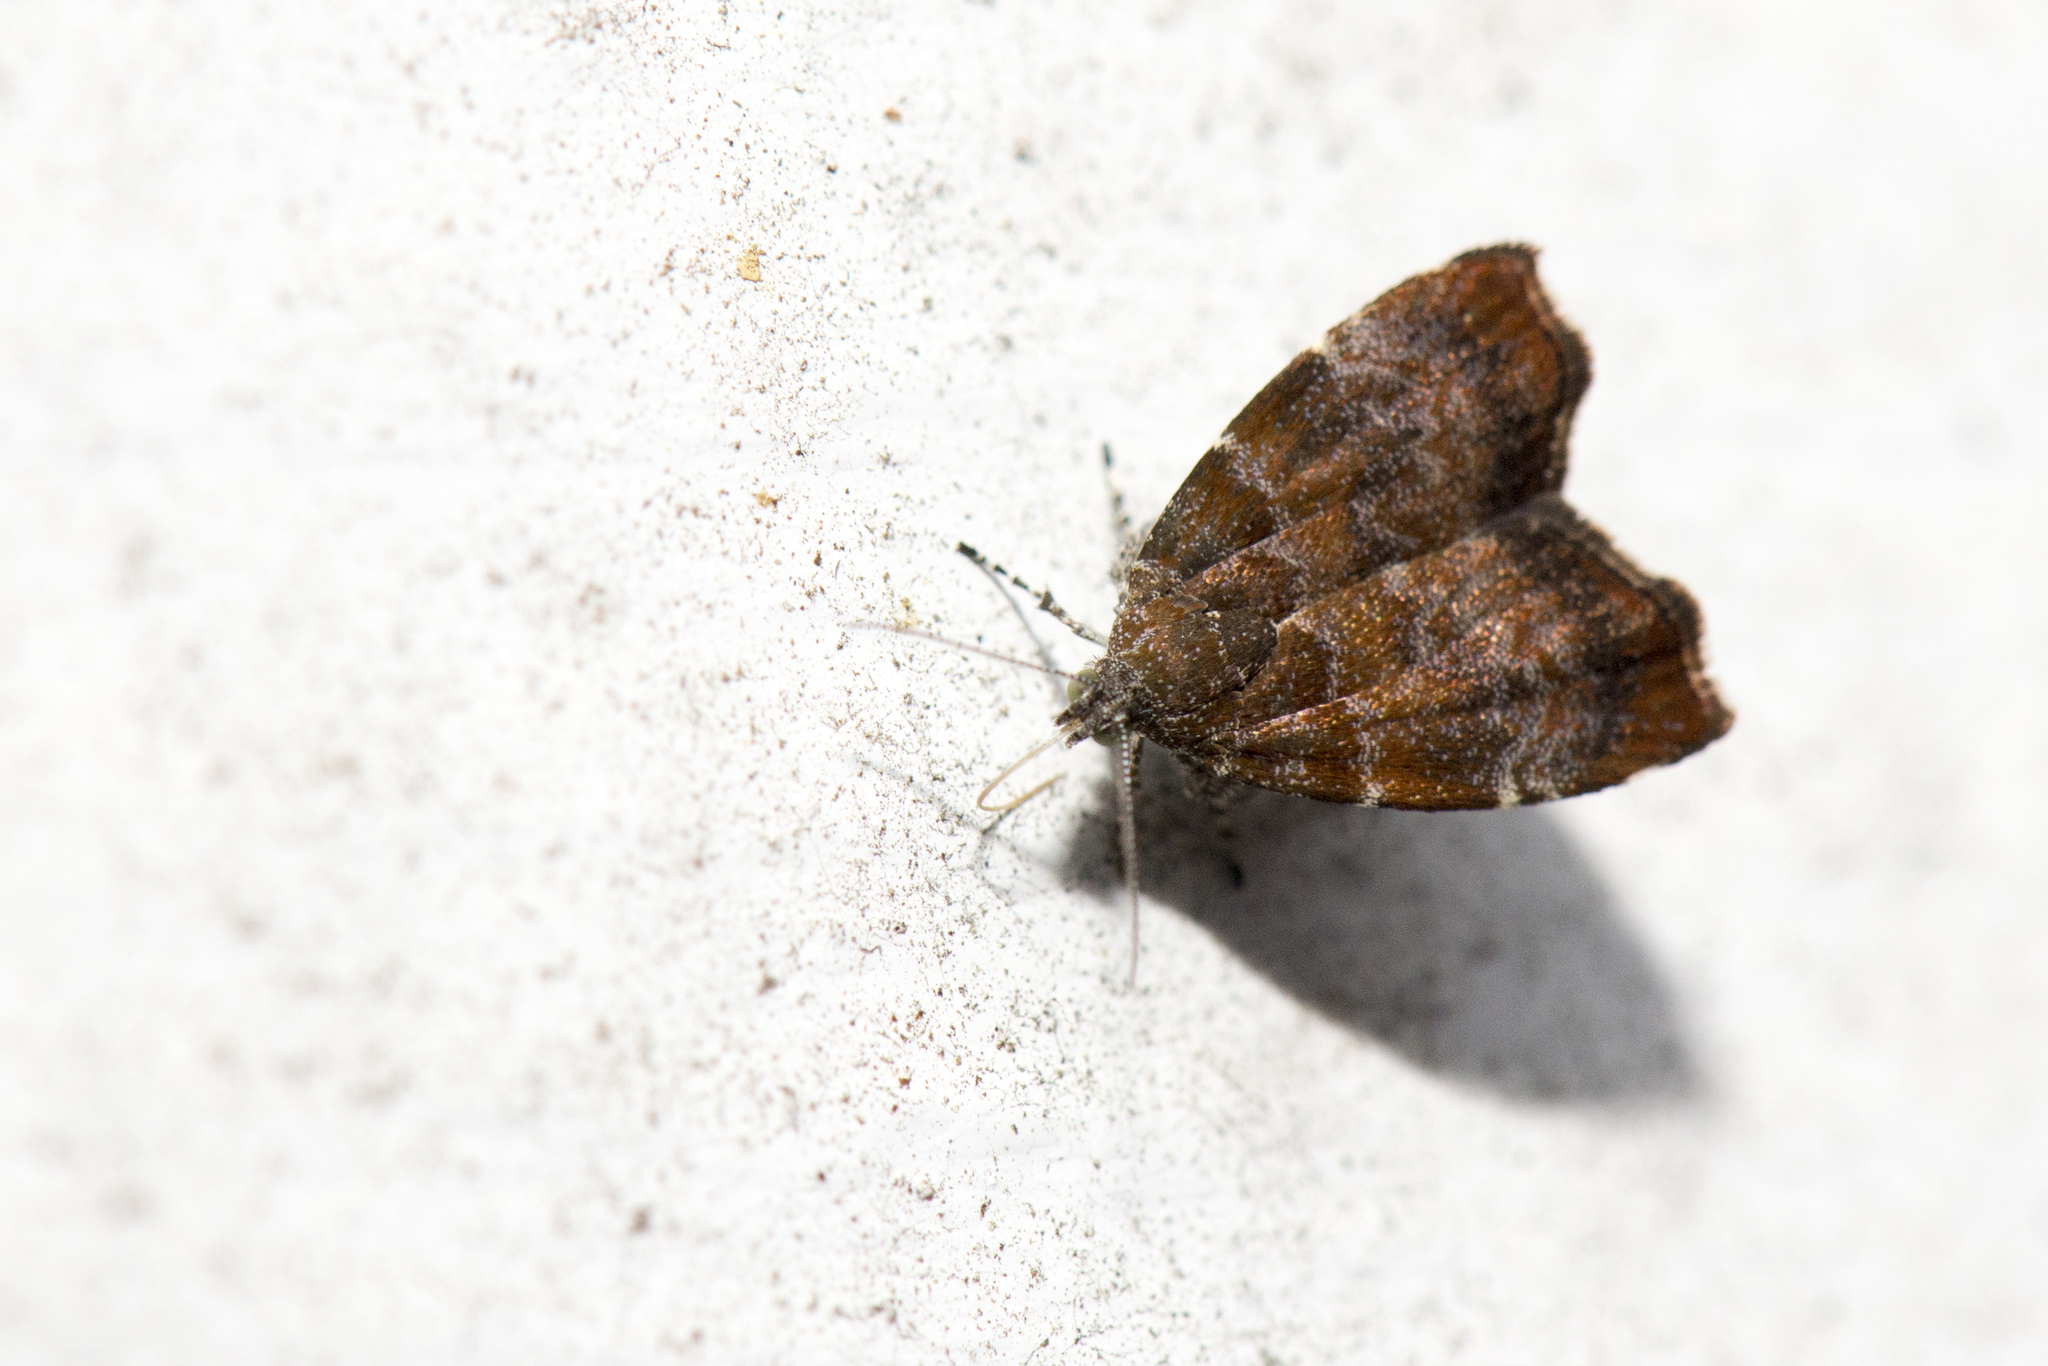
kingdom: Animalia
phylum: Arthropoda
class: Insecta
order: Lepidoptera
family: Choreutidae
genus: Anthophila
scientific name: Anthophila yakushimensis
